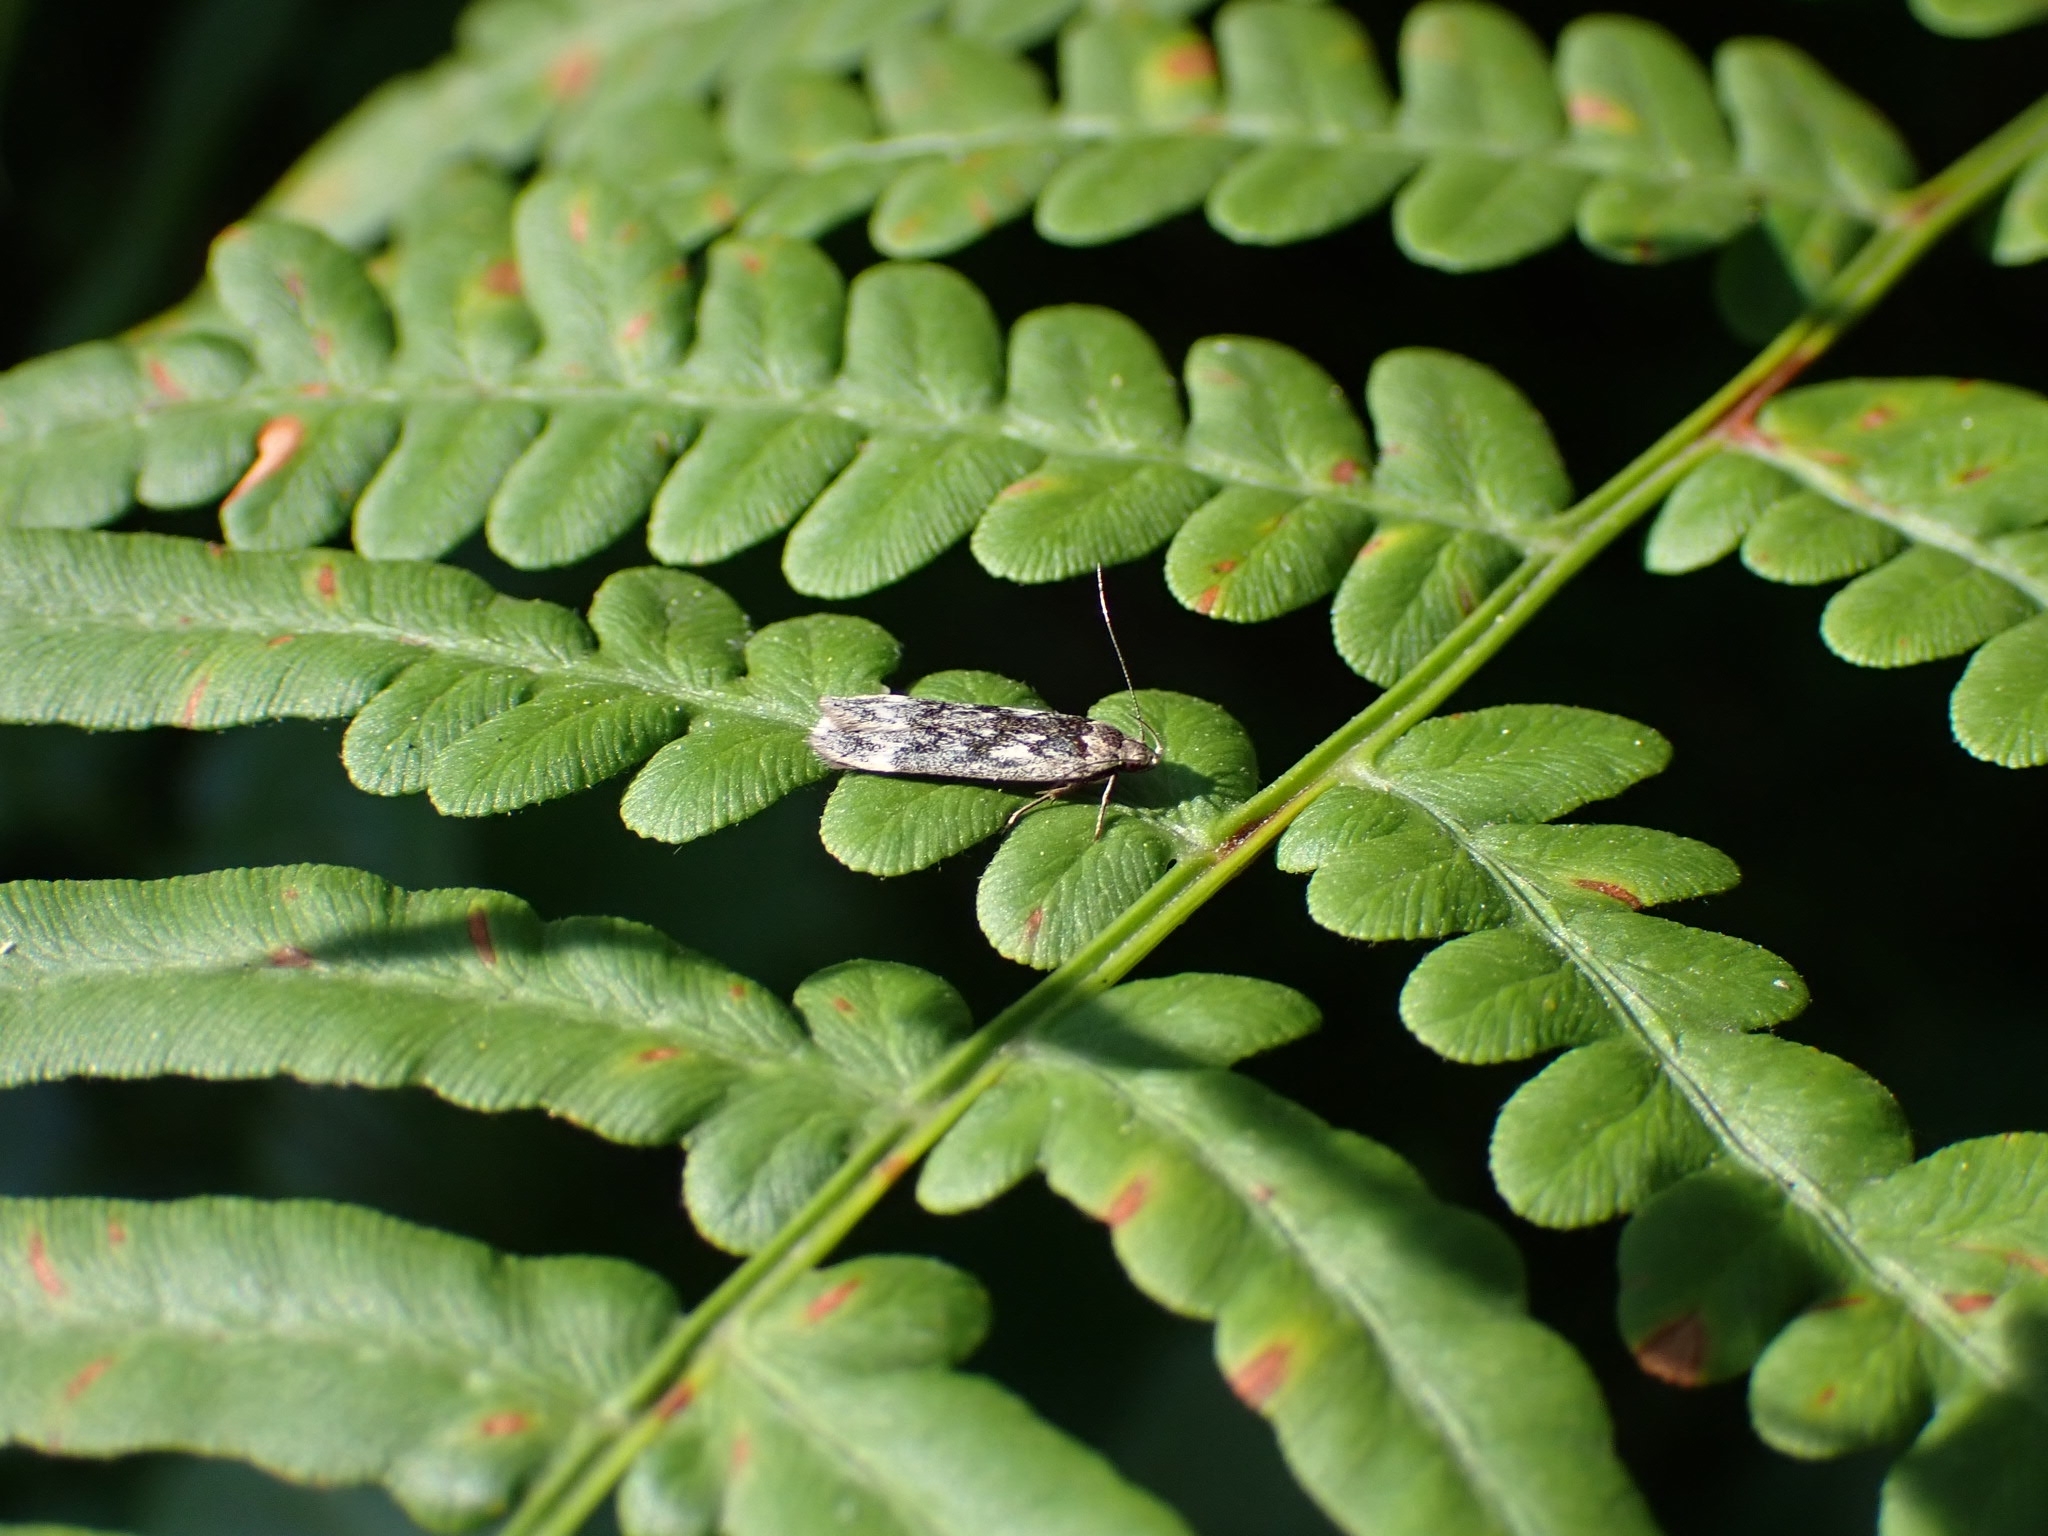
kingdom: Animalia
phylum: Arthropoda
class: Insecta
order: Lepidoptera
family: Gelechiidae
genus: Anacampsis
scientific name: Anacampsis blattariella
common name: Birch sober
